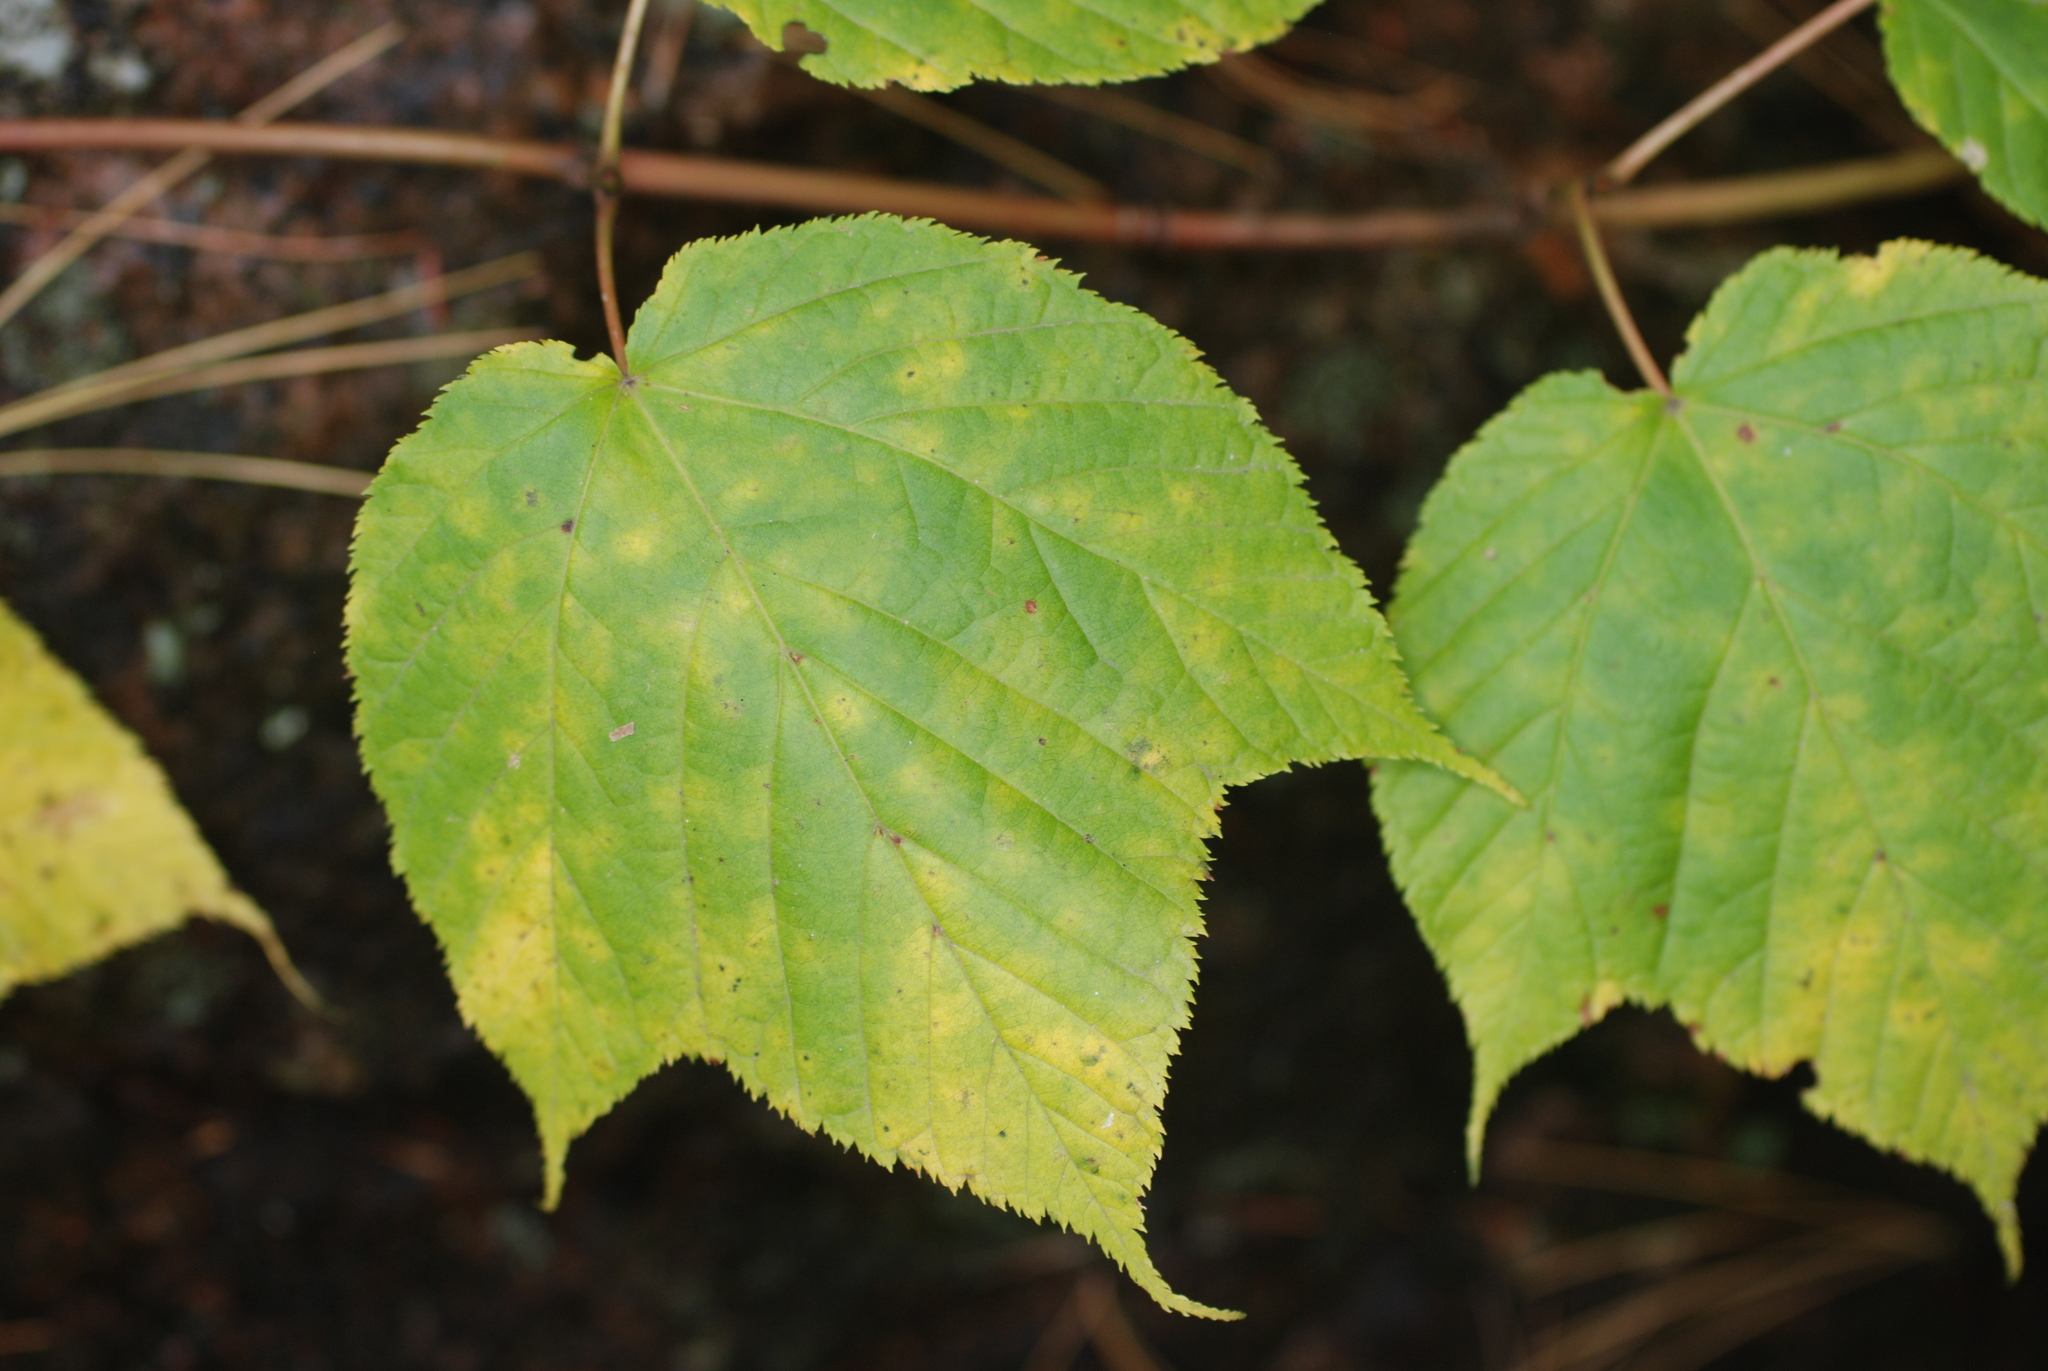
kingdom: Plantae
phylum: Tracheophyta
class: Magnoliopsida
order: Sapindales
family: Sapindaceae
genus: Acer
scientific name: Acer pensylvanicum
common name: Moosewood
